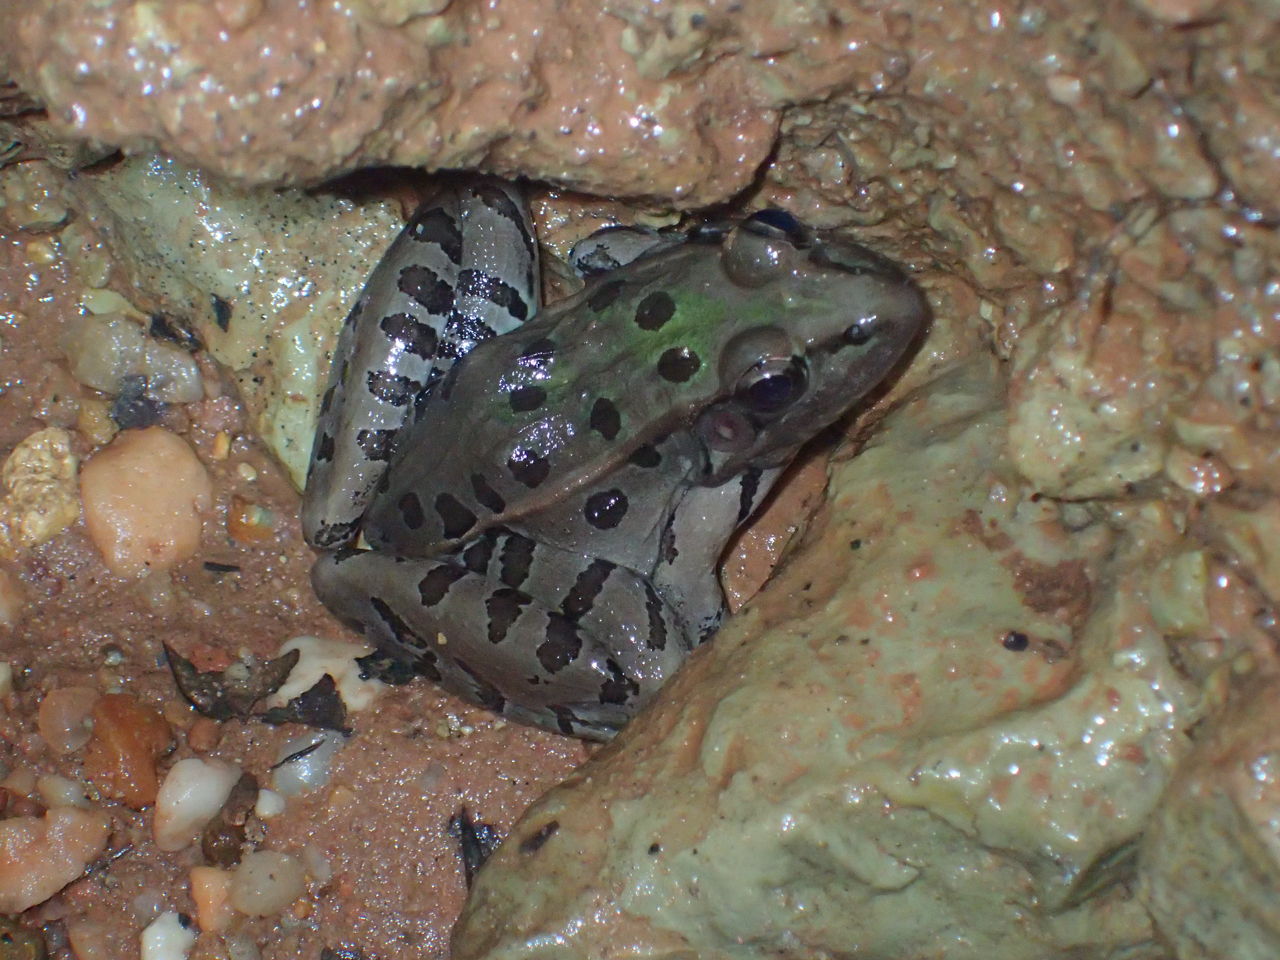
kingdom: Animalia
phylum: Chordata
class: Amphibia
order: Anura
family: Ranidae
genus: Lithobates
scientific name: Lithobates sphenocephalus
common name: Southern leopard frog
